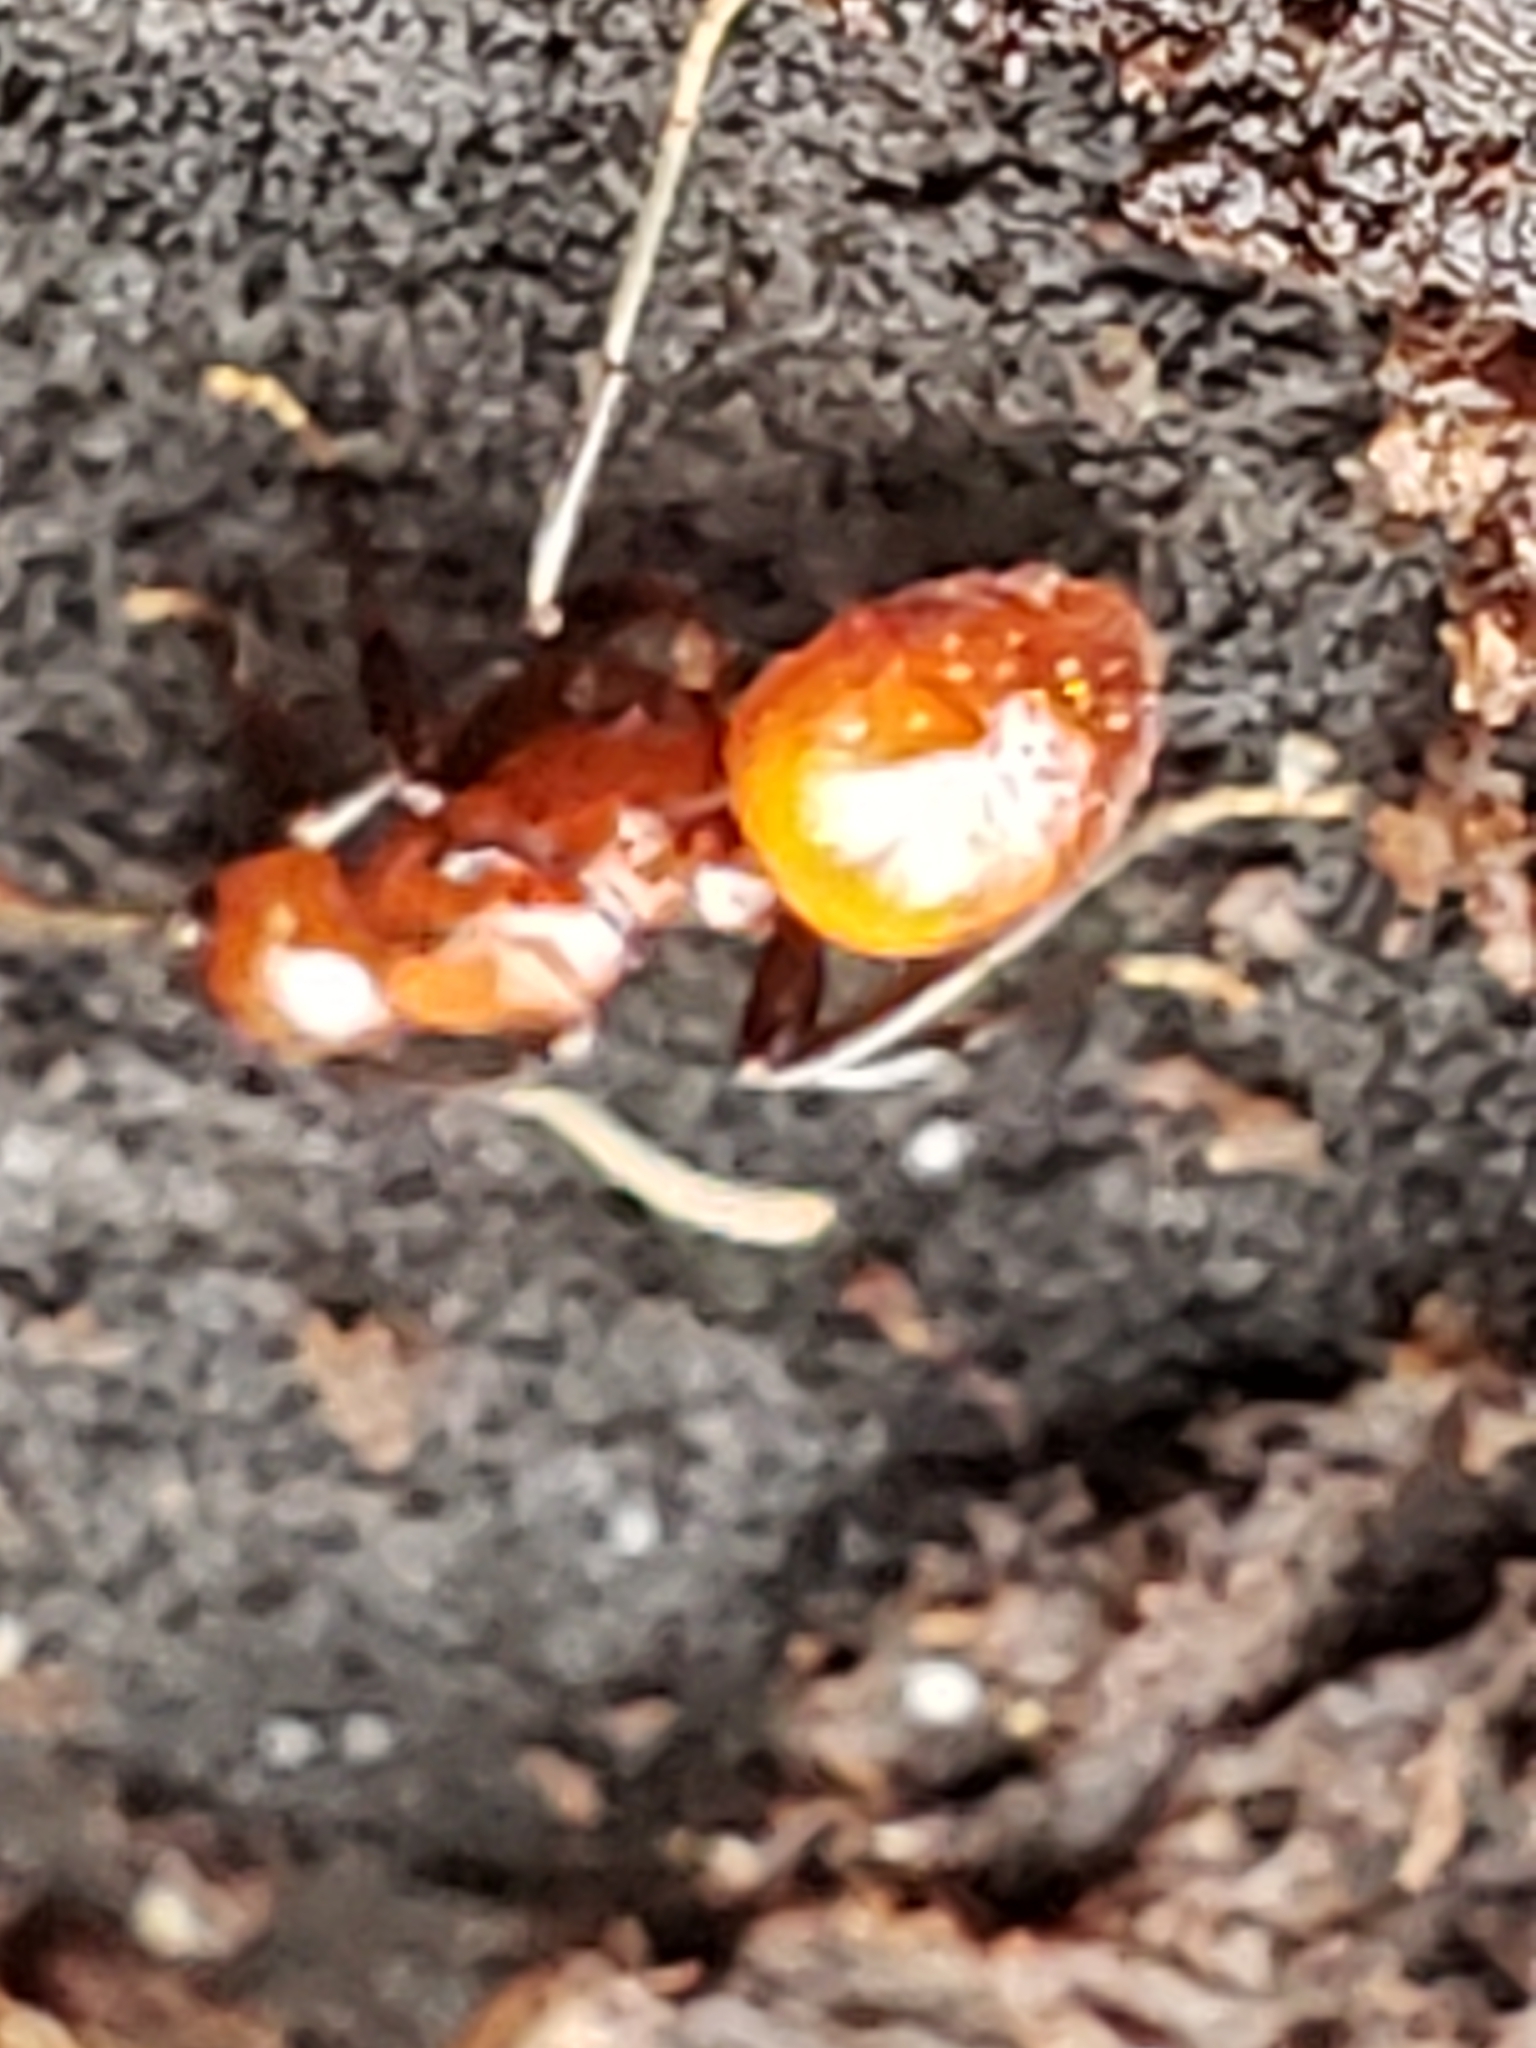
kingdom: Animalia
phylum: Arthropoda
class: Insecta
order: Hymenoptera
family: Formicidae
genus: Aphaenogaster
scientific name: Aphaenogaster tennesseensis
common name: Tennessee thread-waisted ant
